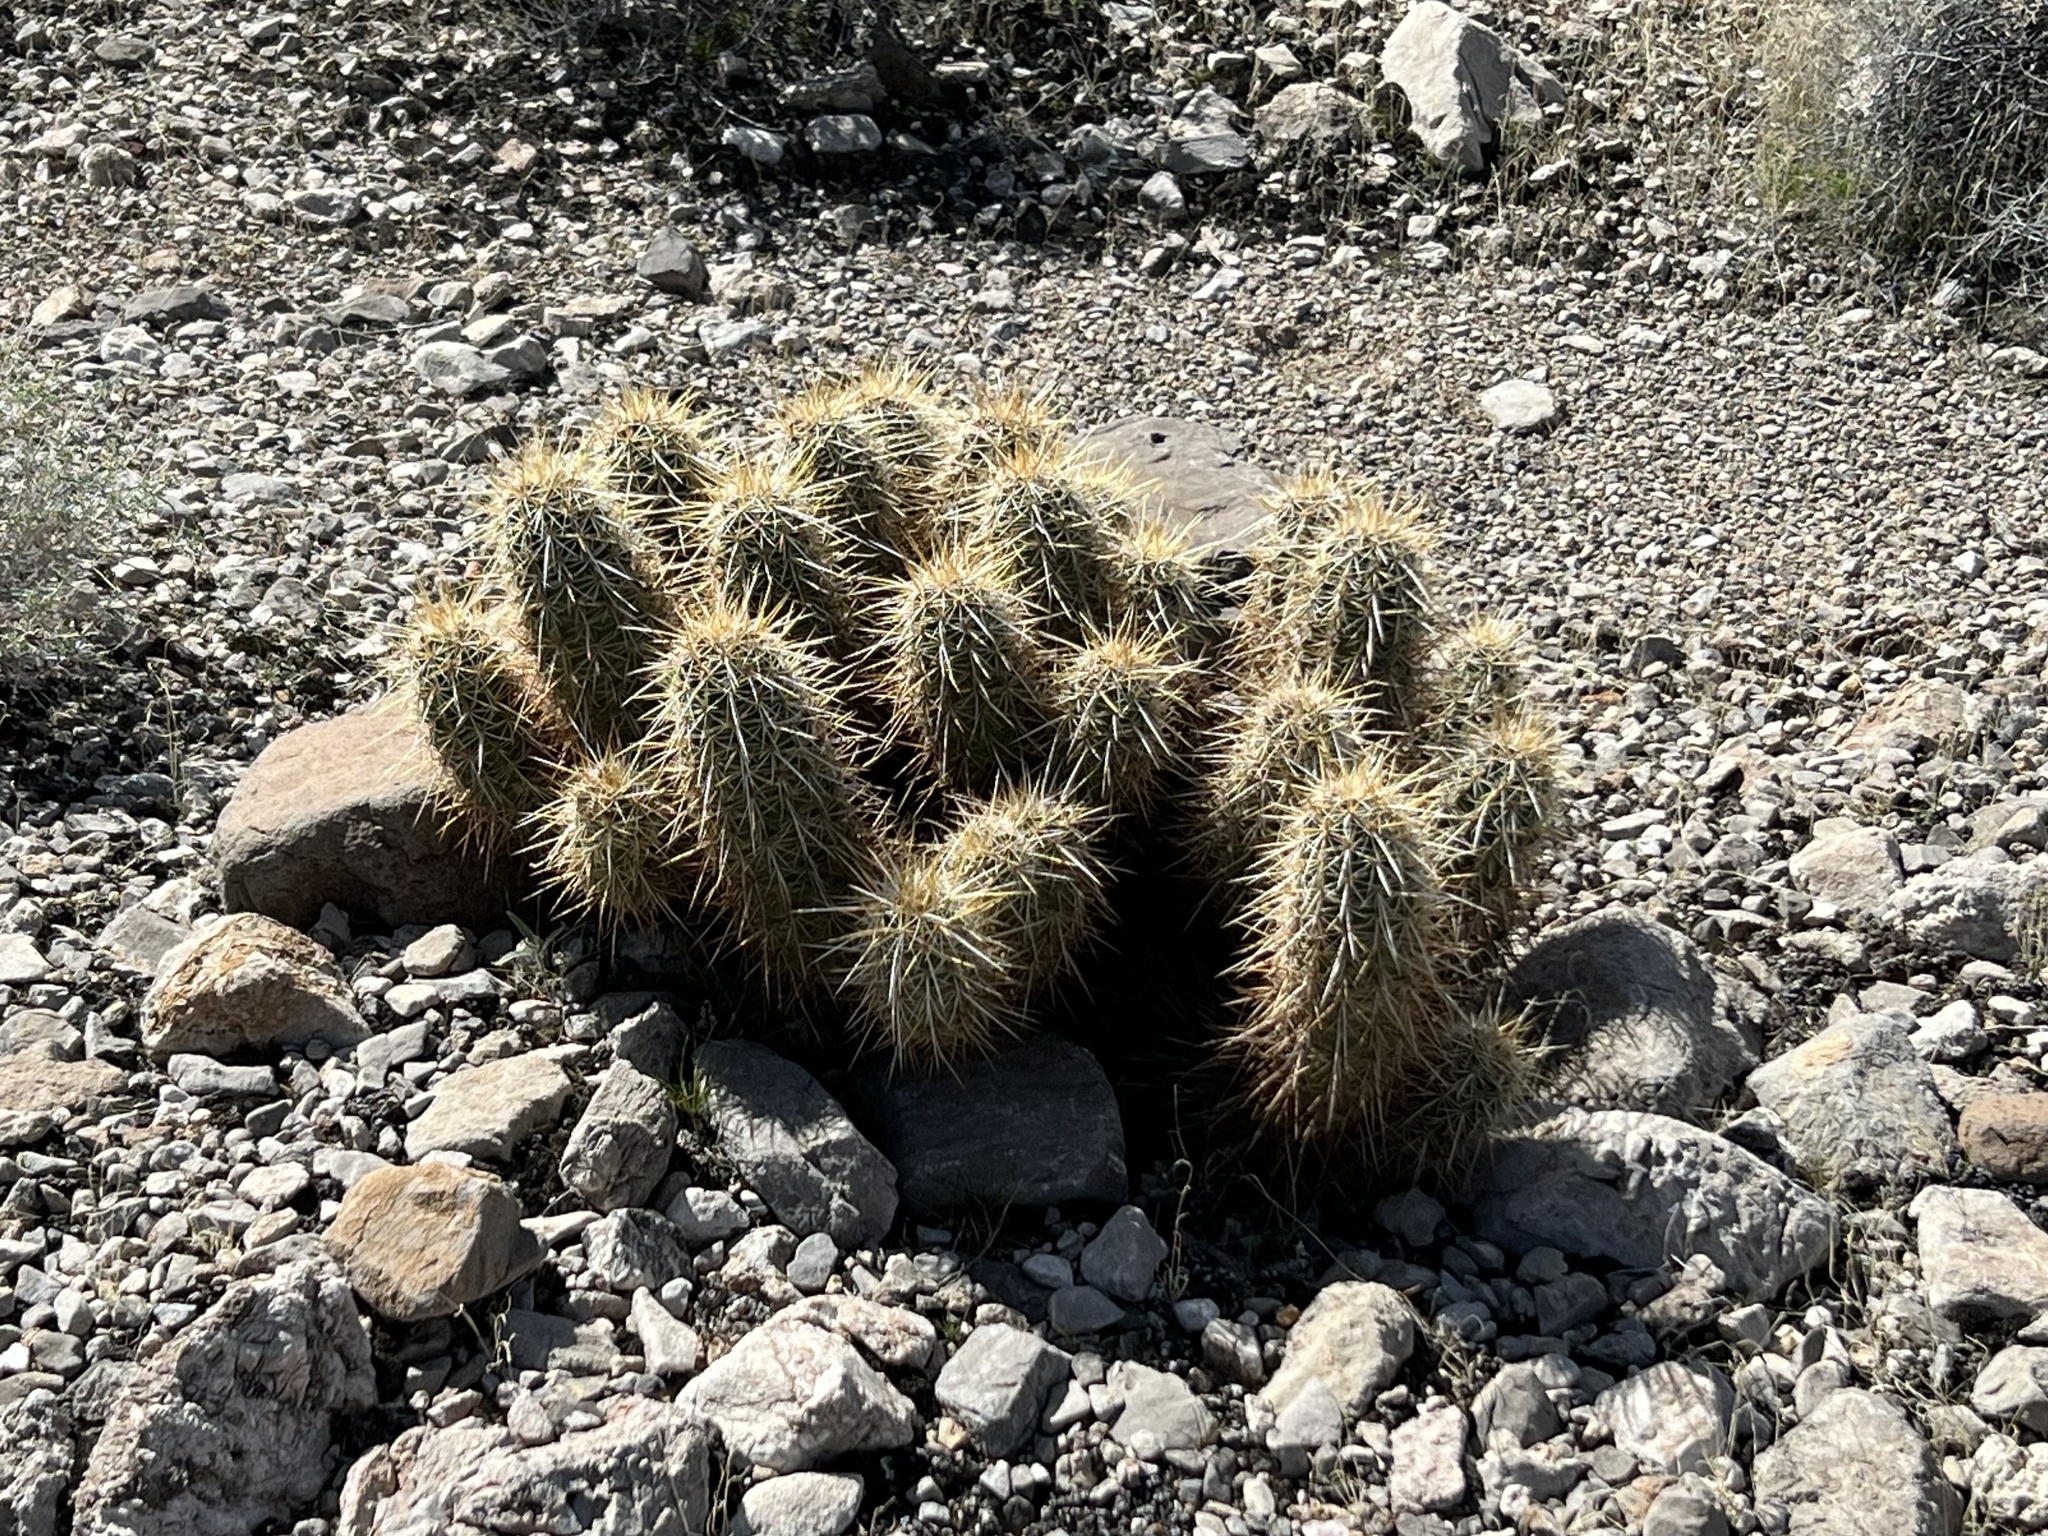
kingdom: Plantae
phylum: Tracheophyta
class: Magnoliopsida
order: Caryophyllales
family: Cactaceae
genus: Echinocereus
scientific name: Echinocereus engelmannii
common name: Engelmann's hedgehog cactus
